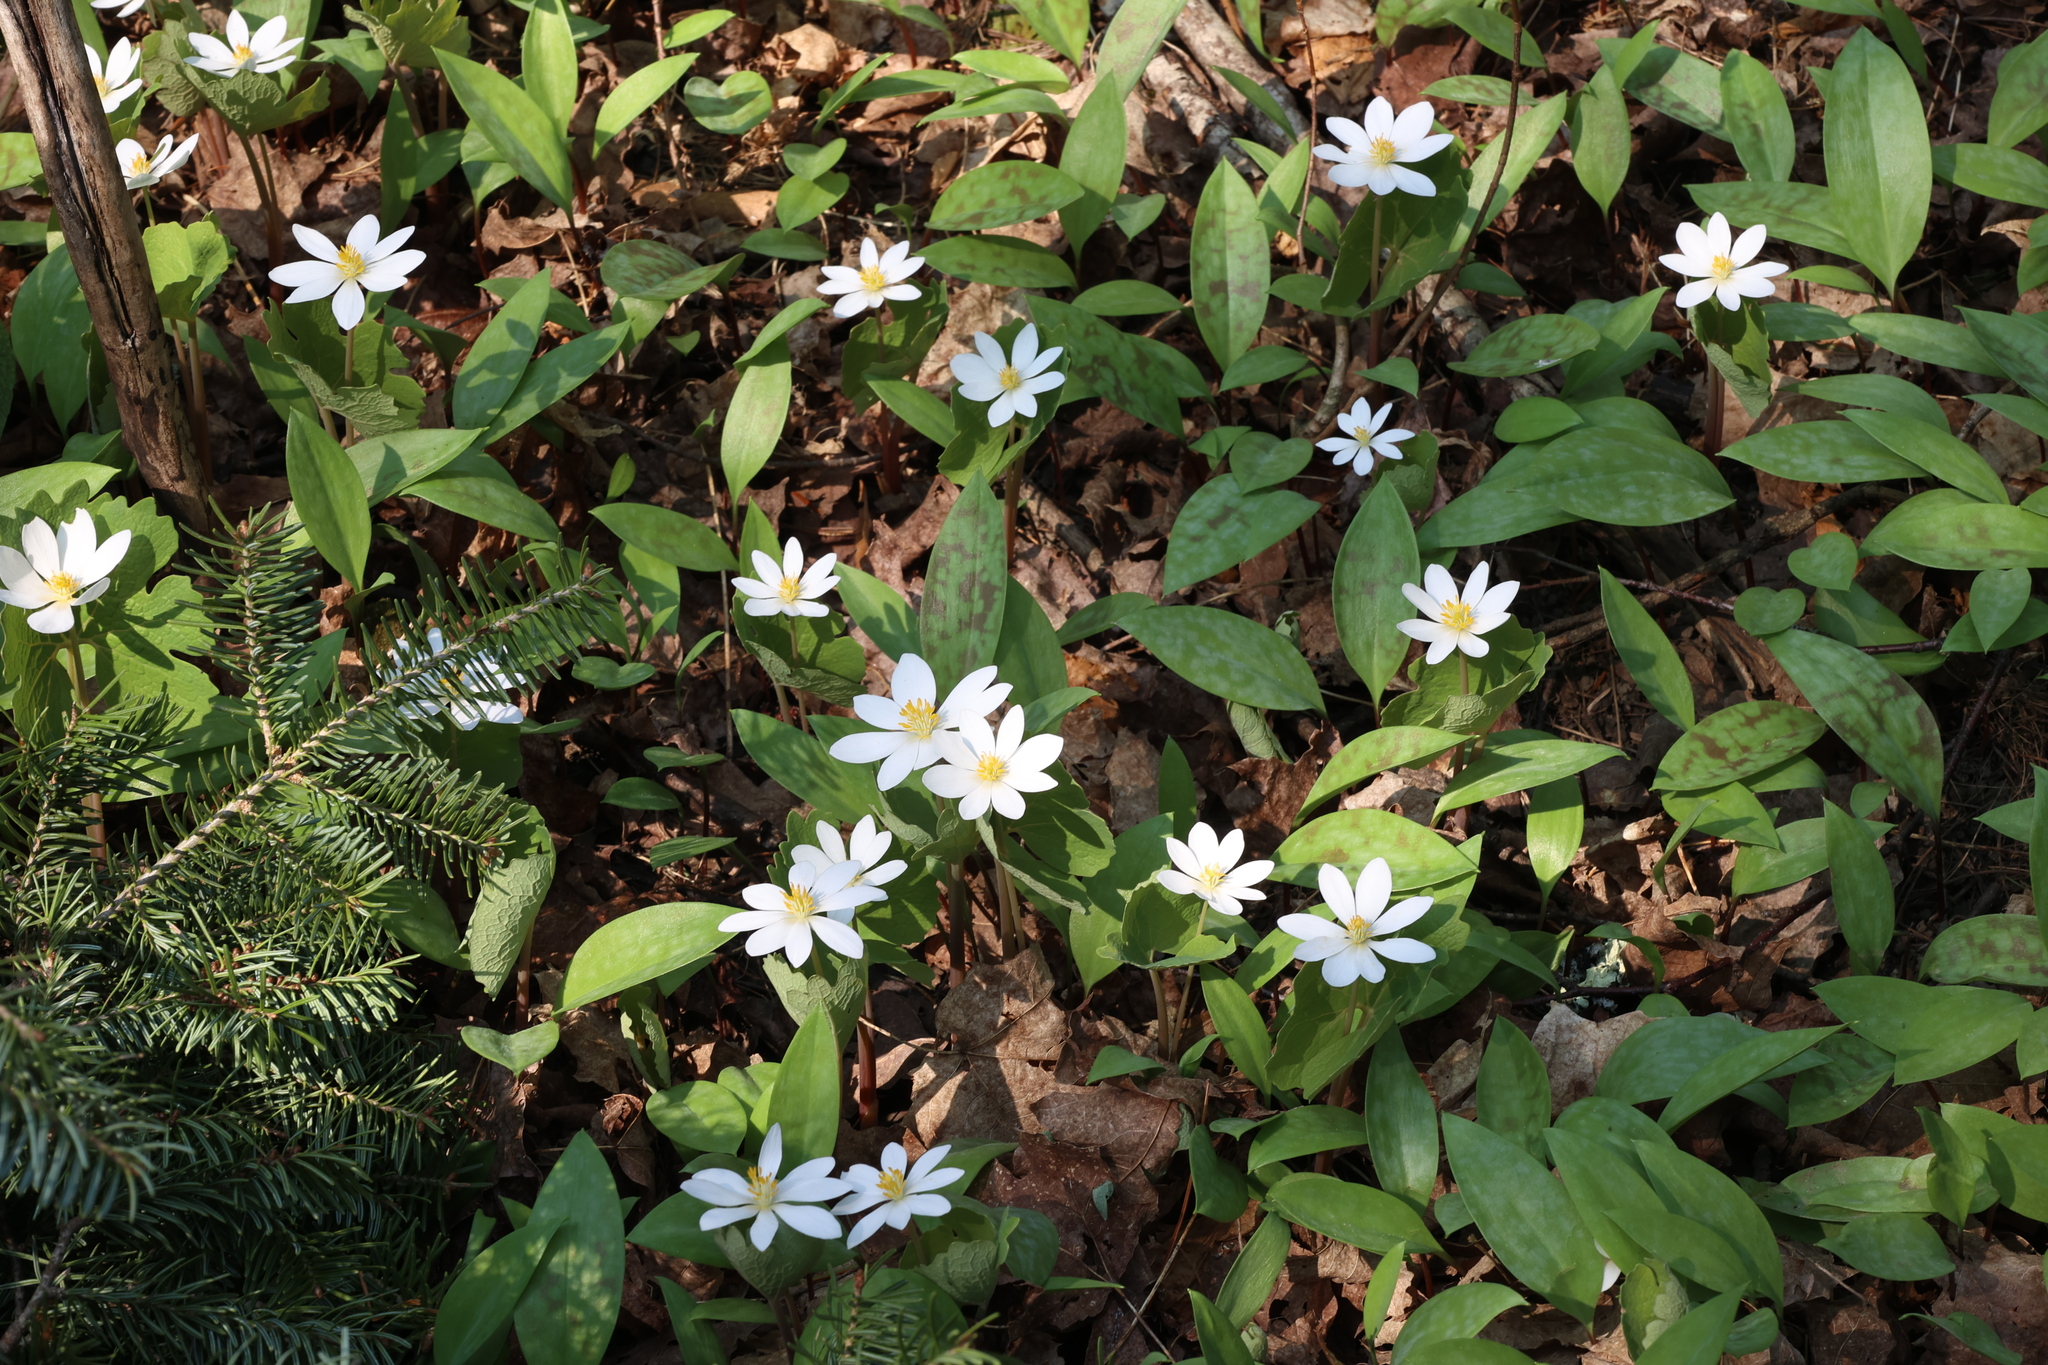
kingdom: Plantae
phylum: Tracheophyta
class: Magnoliopsida
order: Ranunculales
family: Papaveraceae
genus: Sanguinaria
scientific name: Sanguinaria canadensis
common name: Bloodroot
